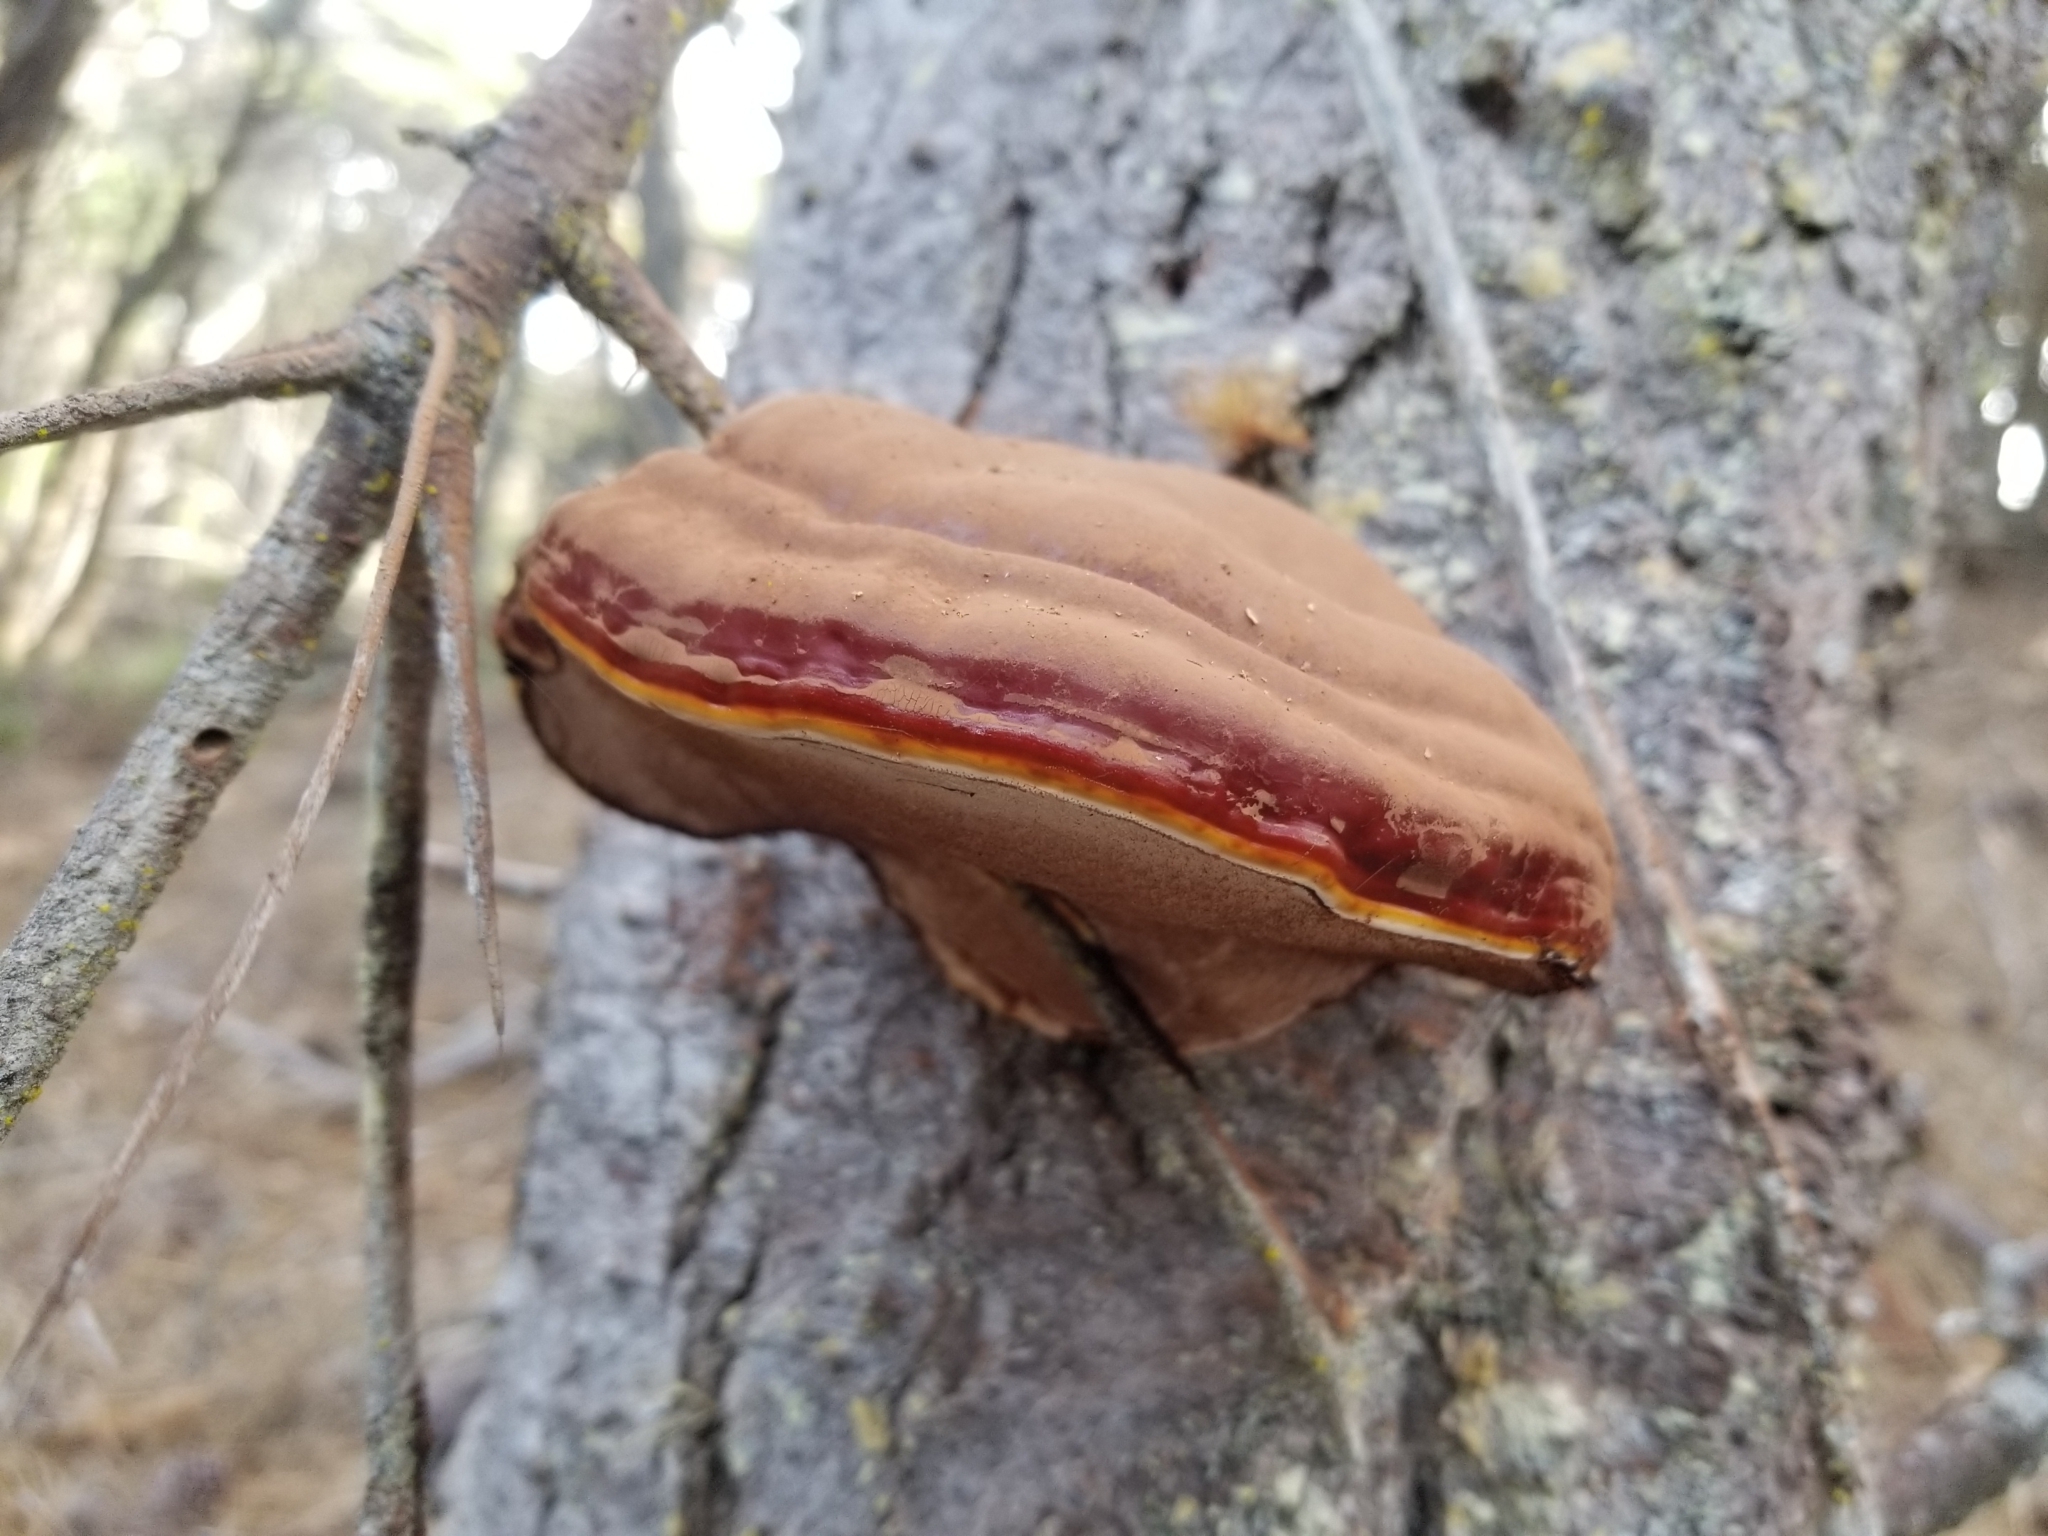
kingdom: Fungi
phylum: Basidiomycota
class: Agaricomycetes
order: Polyporales
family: Polyporaceae
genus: Ganoderma
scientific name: Ganoderma oregonense
